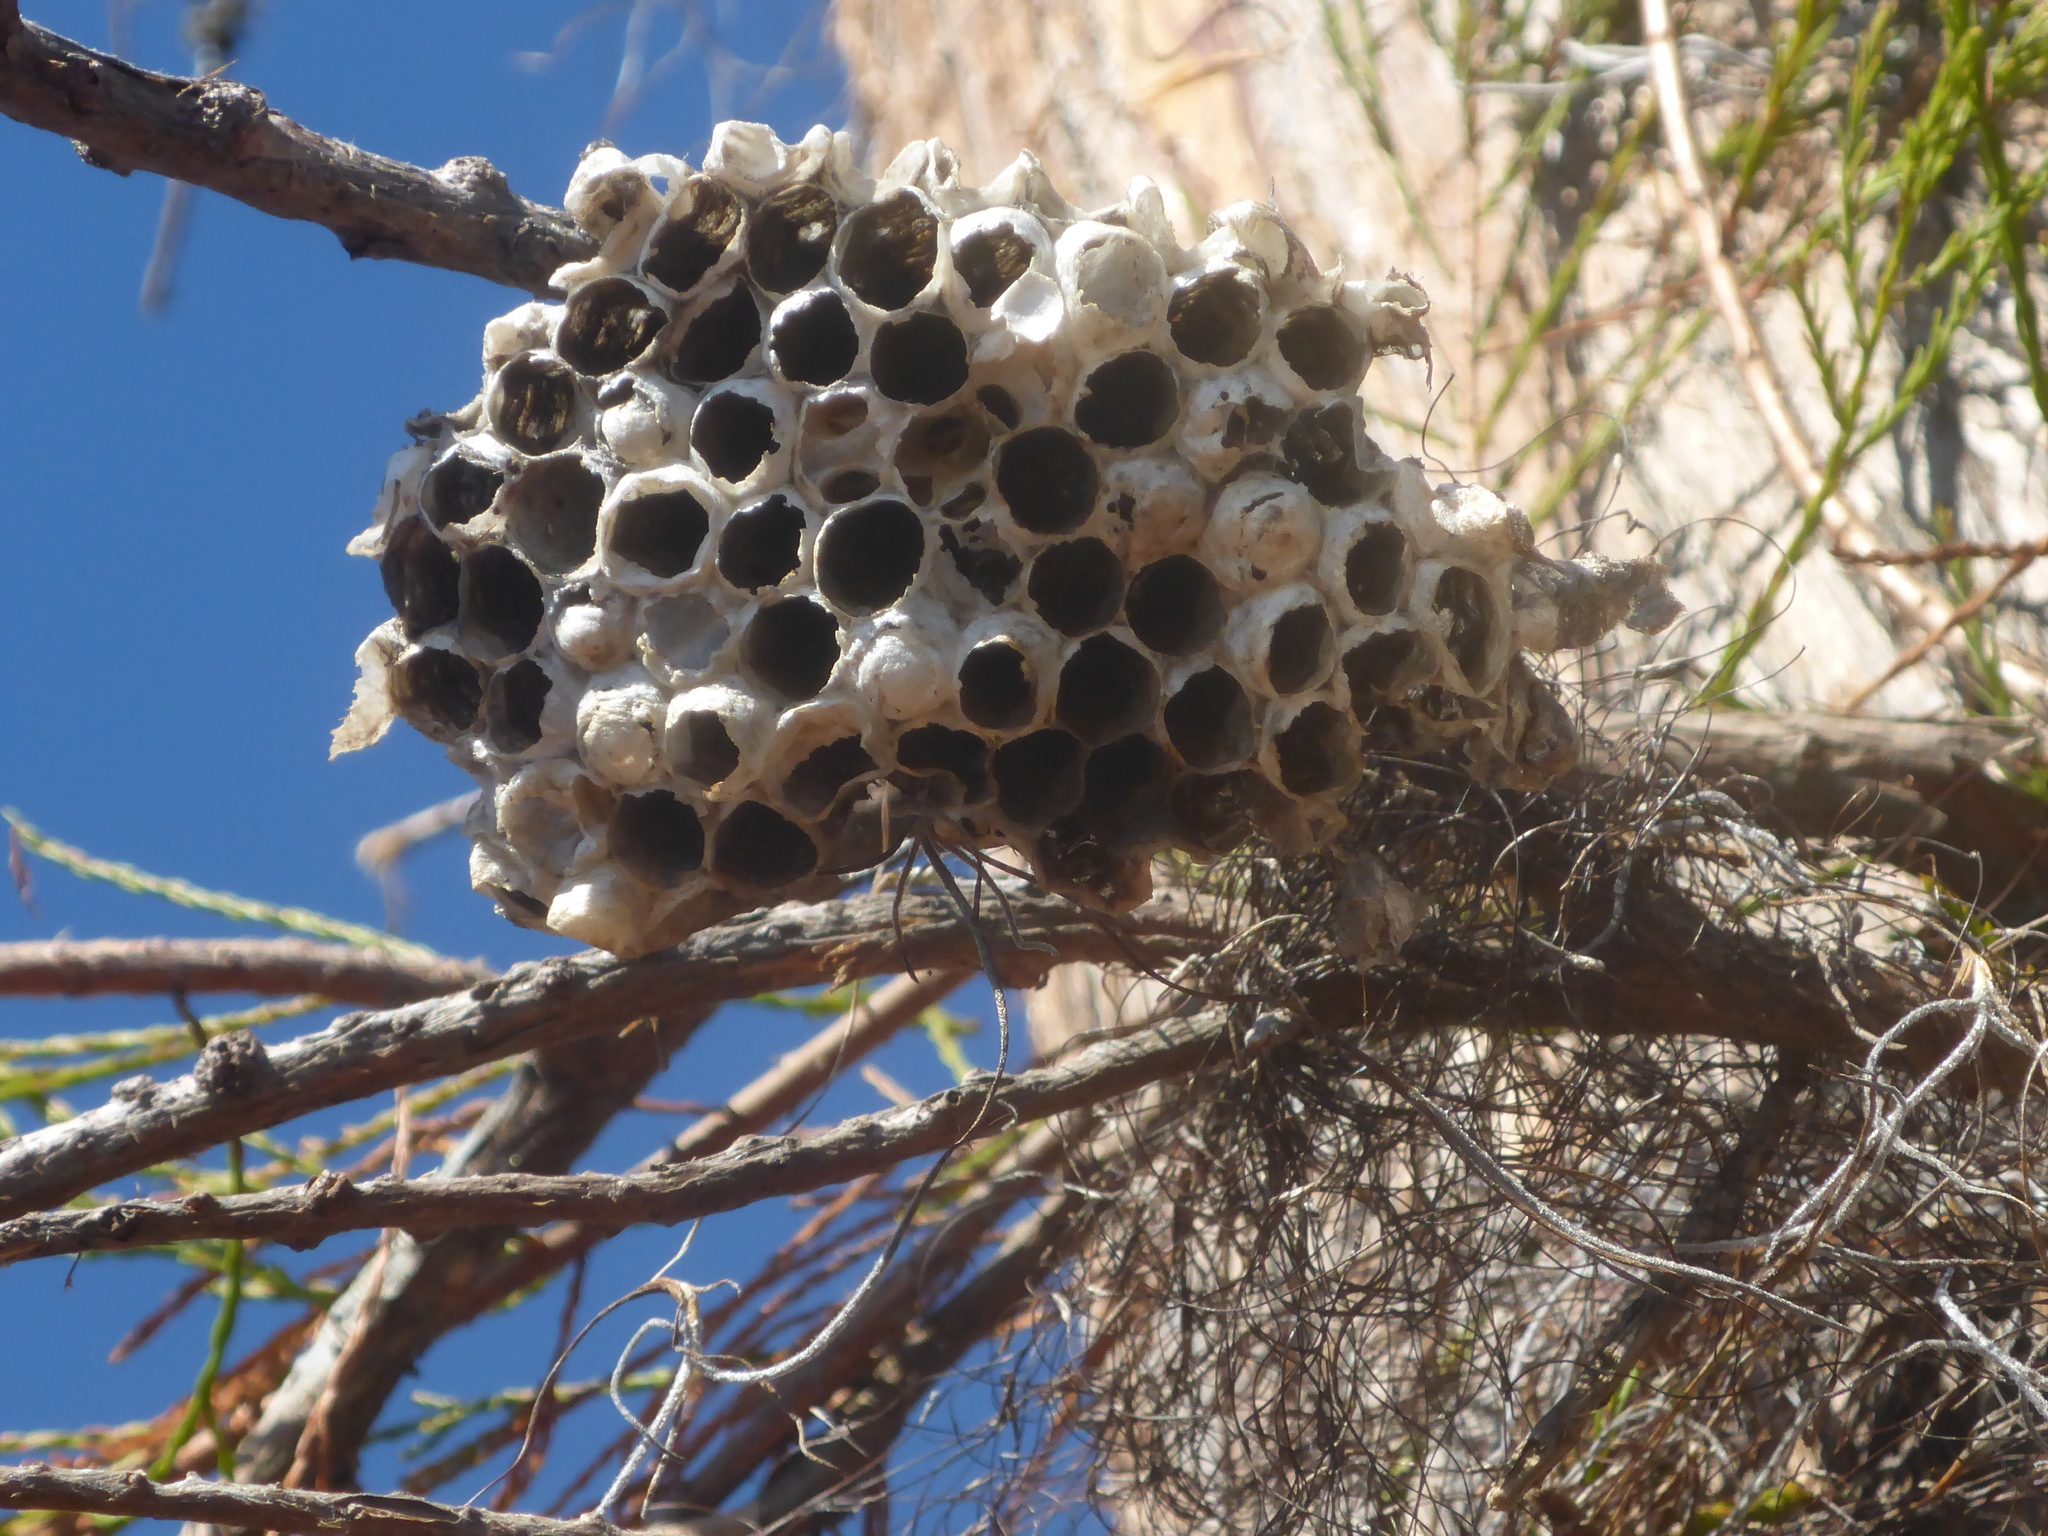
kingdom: Animalia
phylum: Arthropoda
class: Insecta
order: Hymenoptera
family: Vespidae
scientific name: Vespidae
